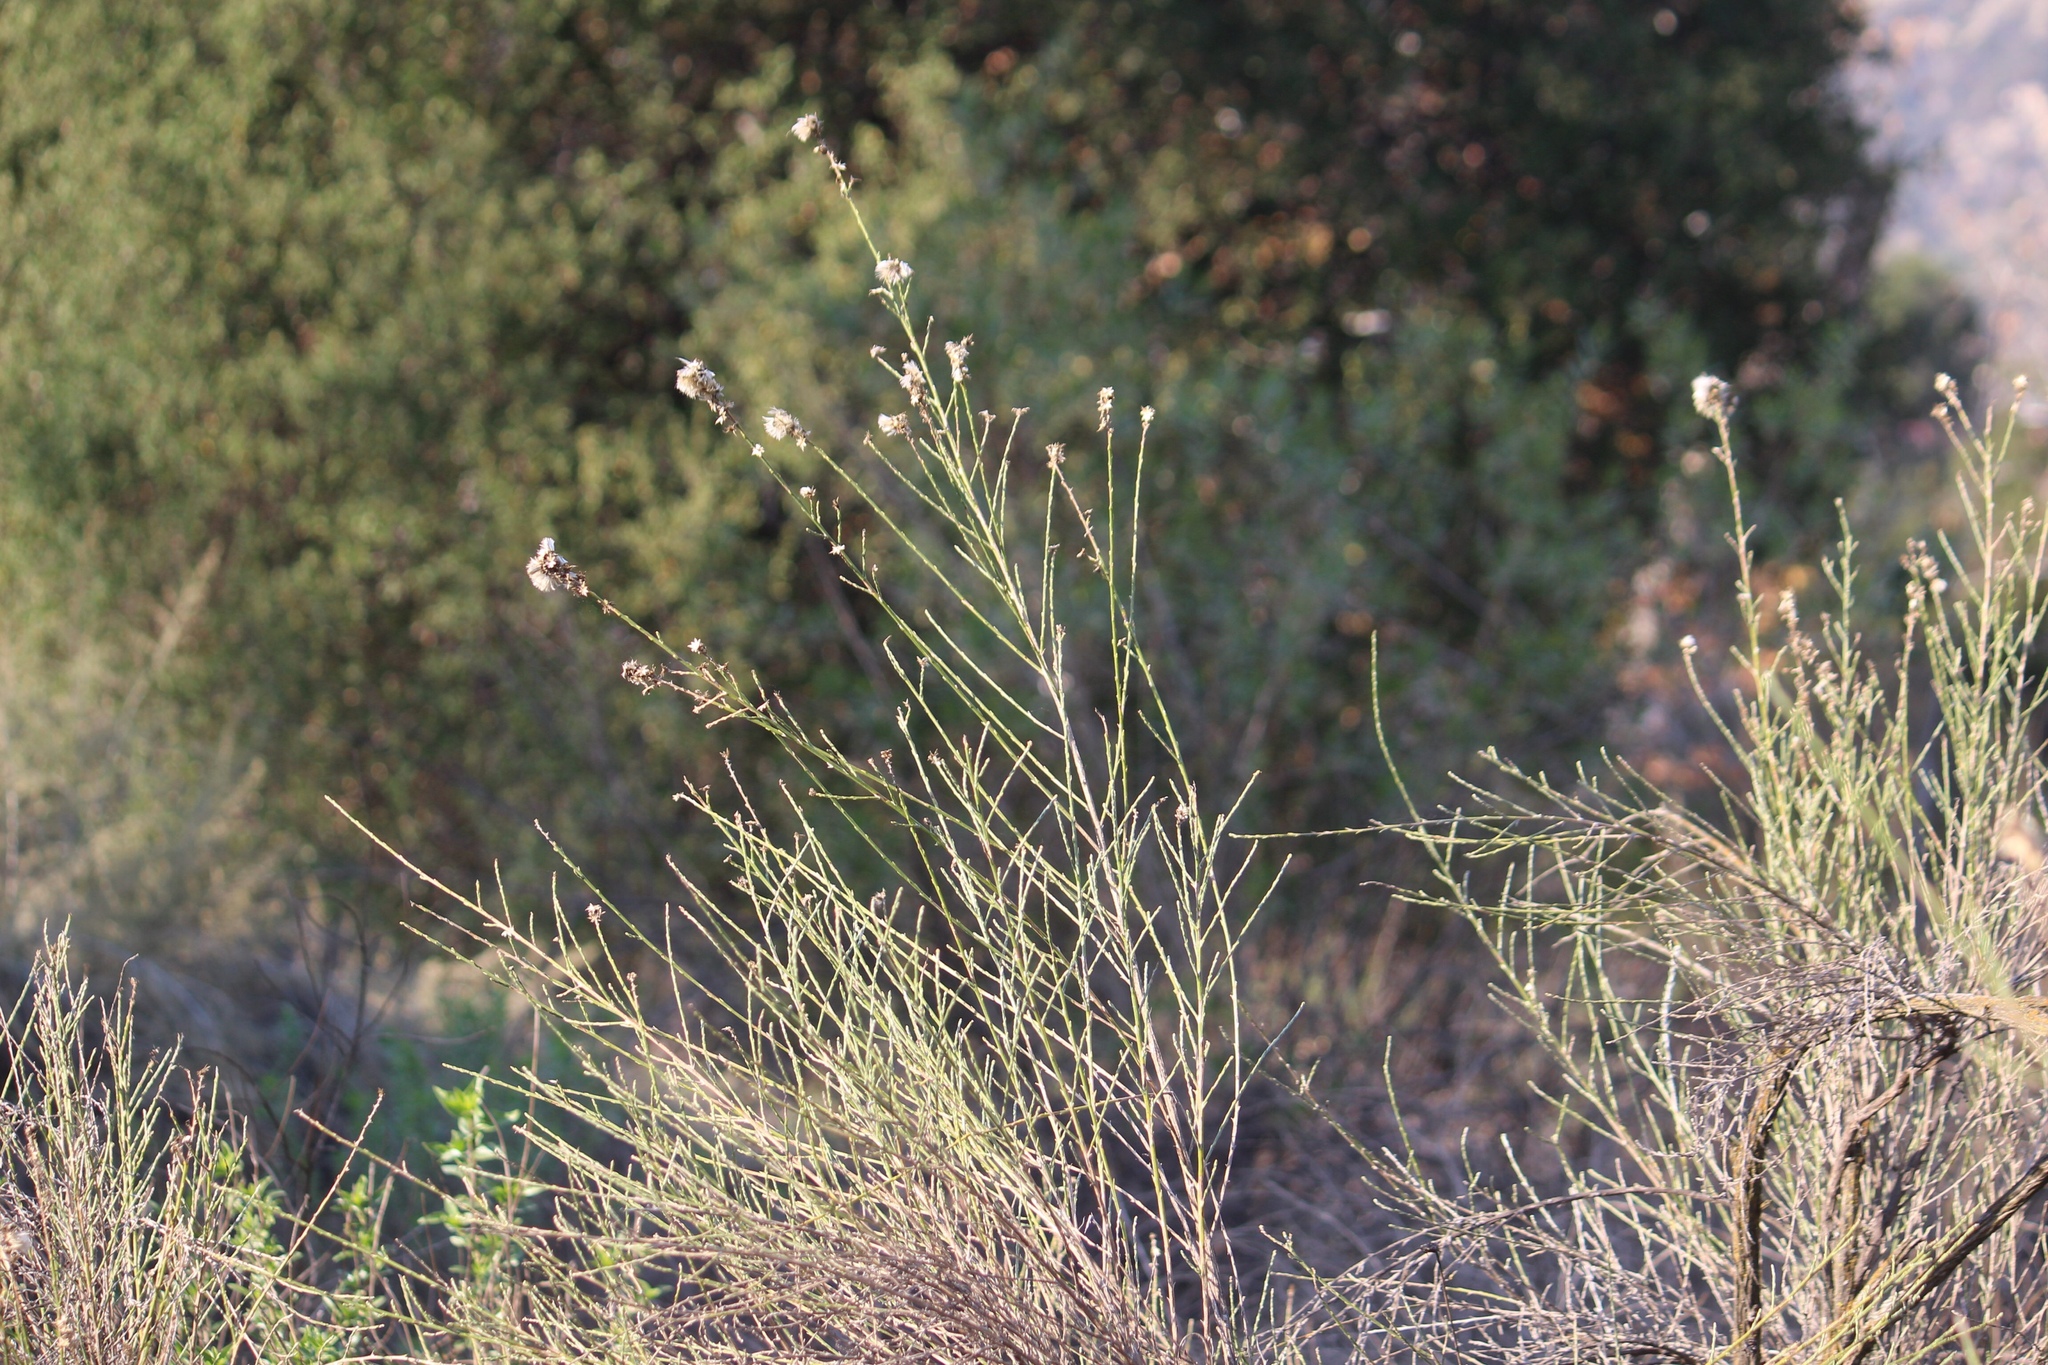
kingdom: Plantae
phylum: Tracheophyta
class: Magnoliopsida
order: Asterales
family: Asteraceae
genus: Lepidospartum
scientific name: Lepidospartum squamatum
